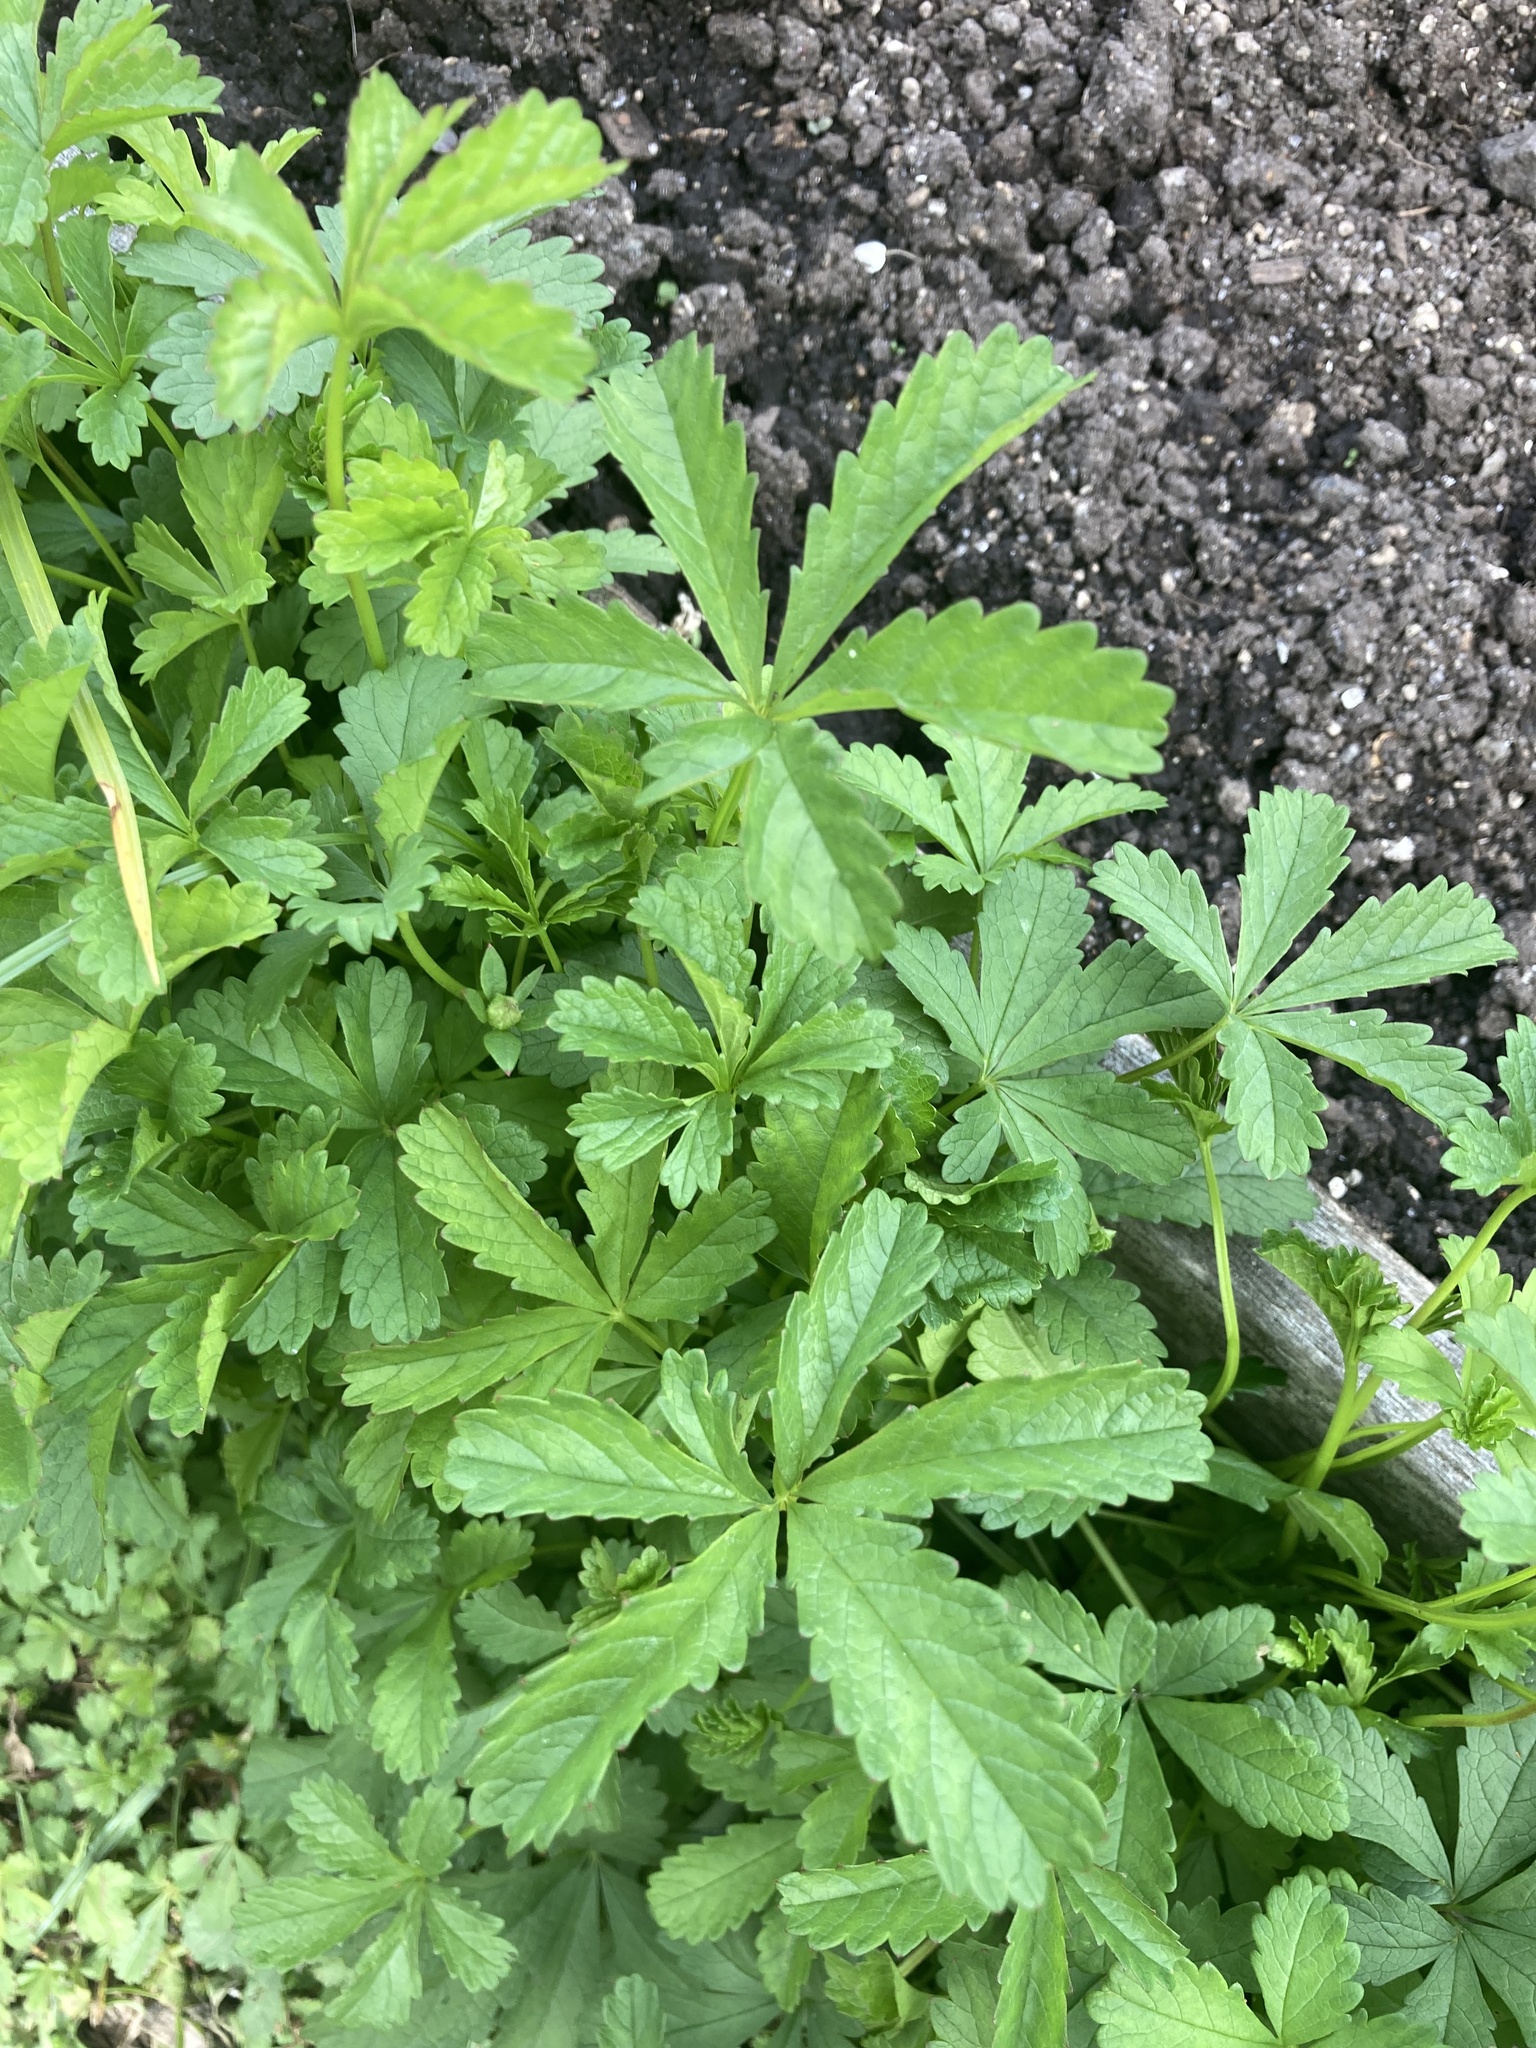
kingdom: Plantae
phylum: Tracheophyta
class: Magnoliopsida
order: Rosales
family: Rosaceae
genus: Potentilla
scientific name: Potentilla reptans
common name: Creeping cinquefoil
